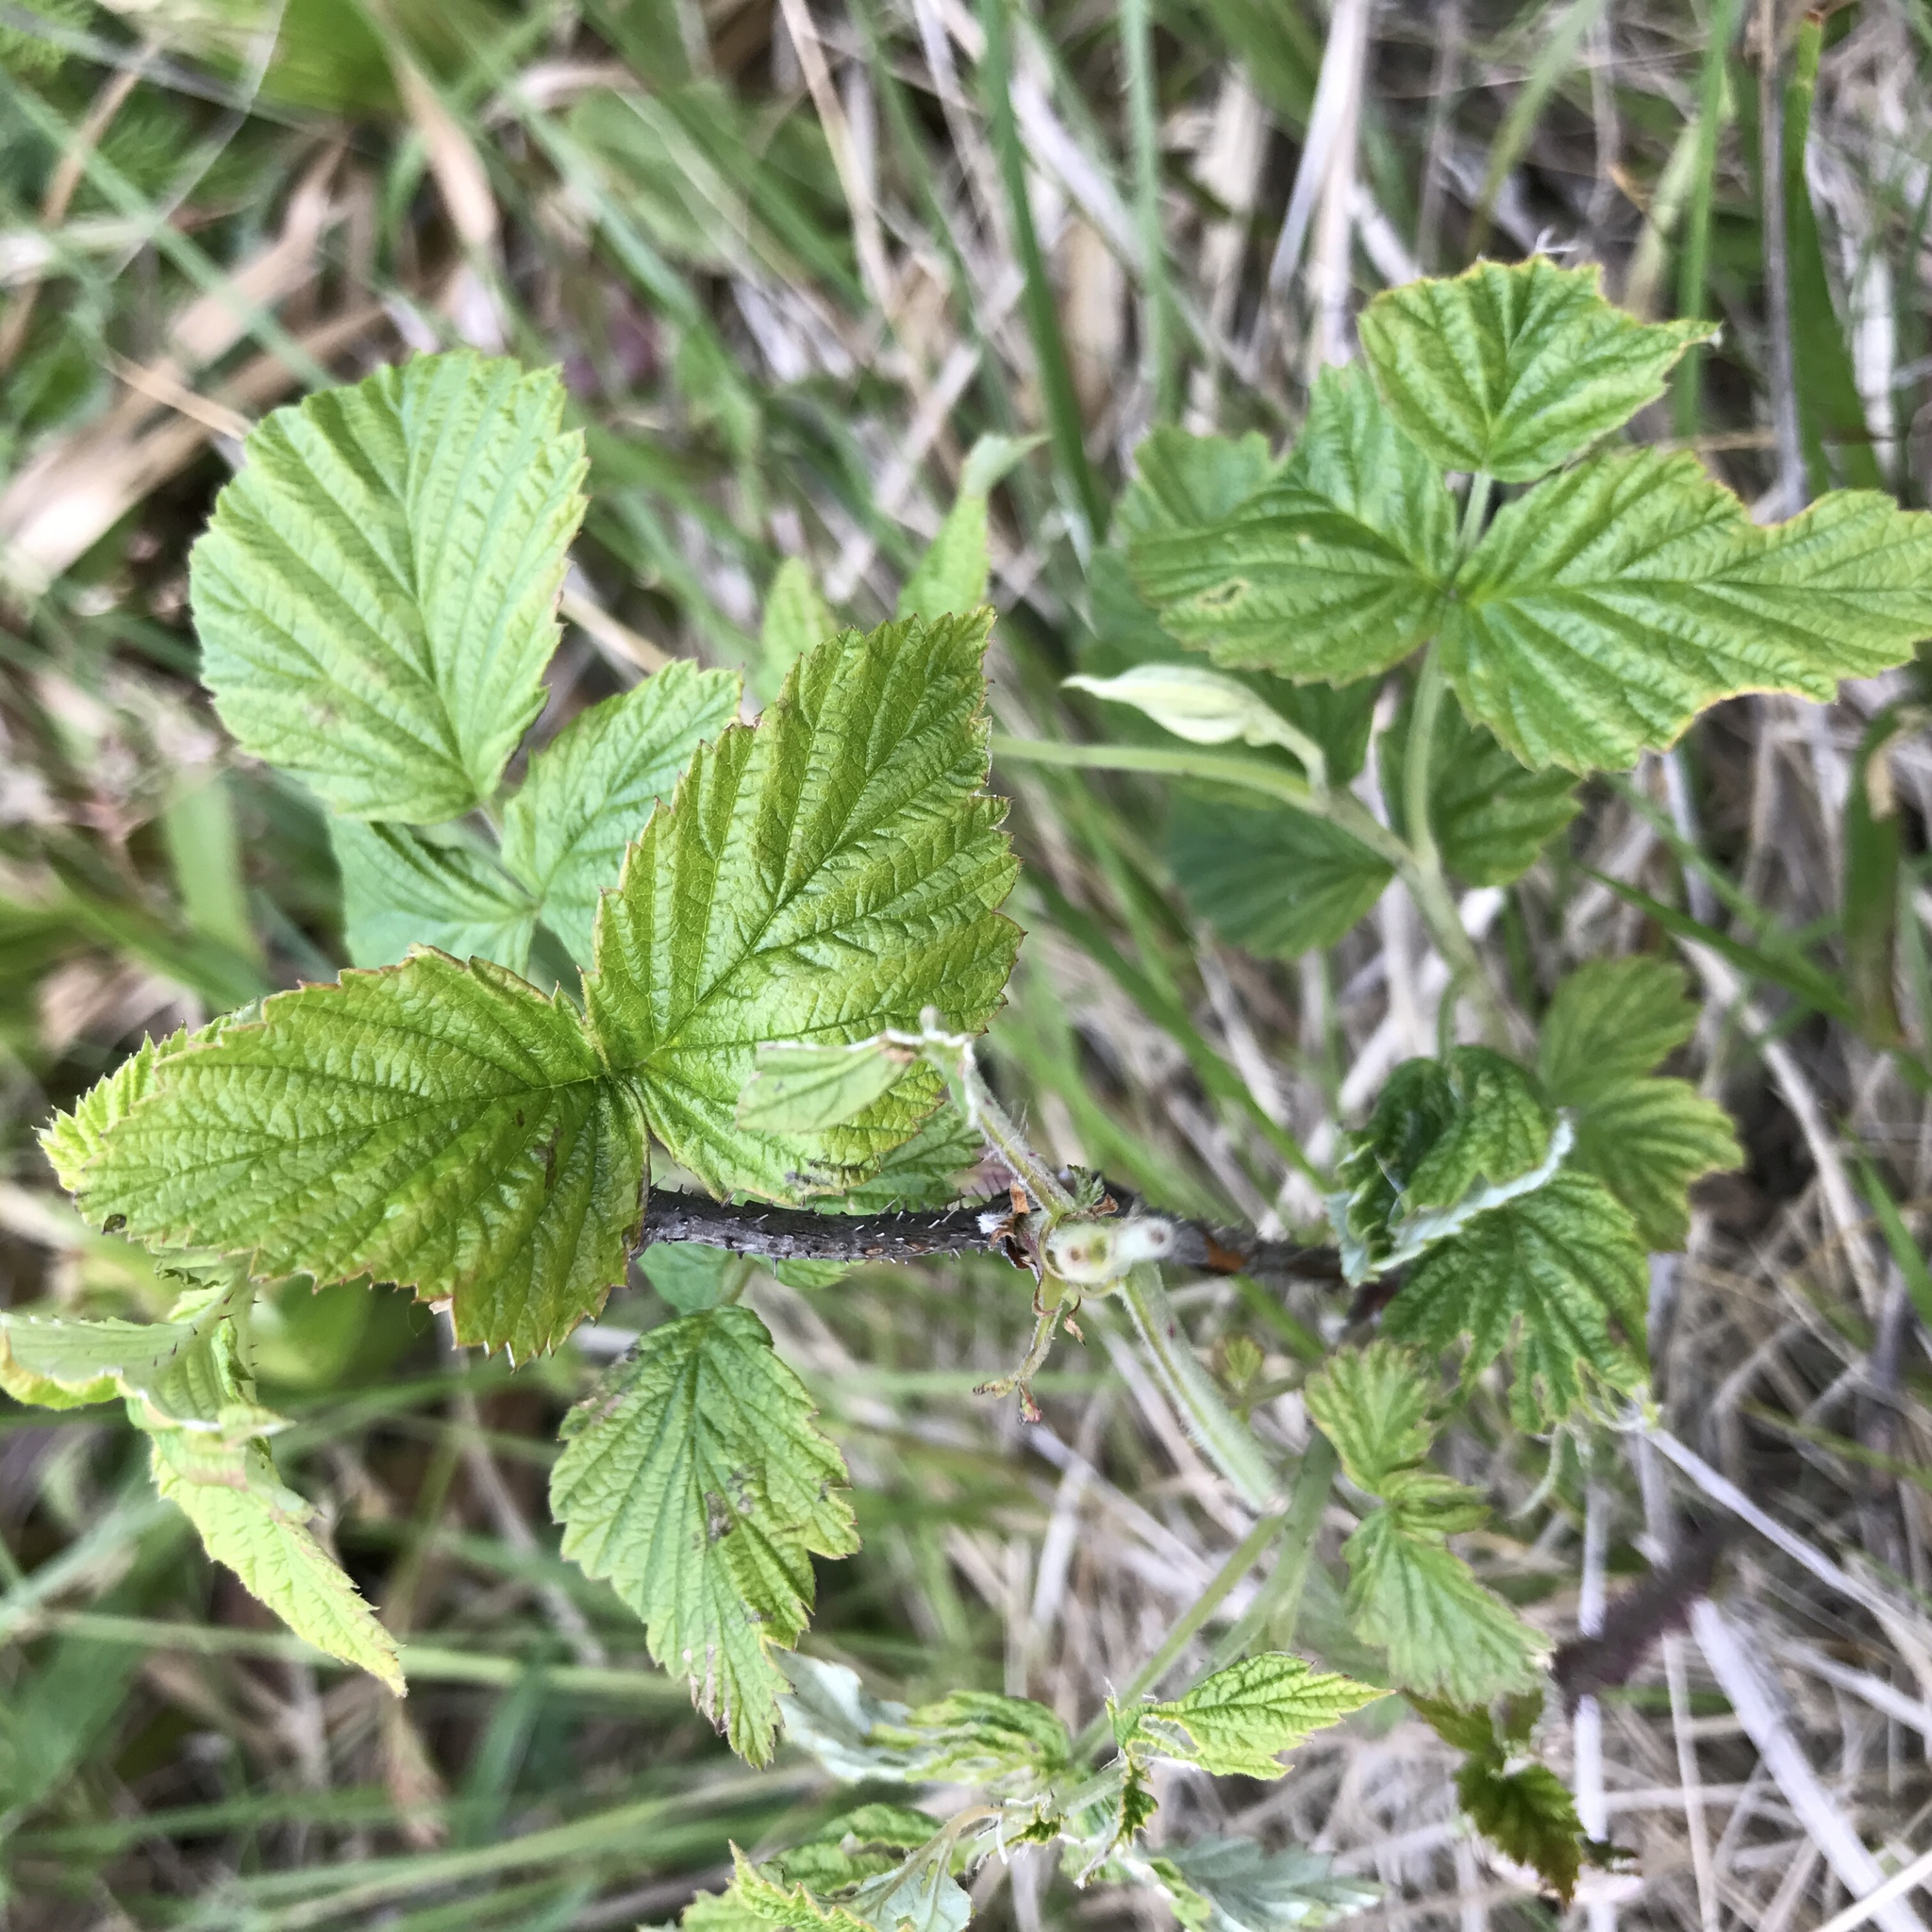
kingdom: Plantae
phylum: Tracheophyta
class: Magnoliopsida
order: Rosales
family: Rosaceae
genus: Rubus
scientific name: Rubus idaeus
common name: Raspberry
